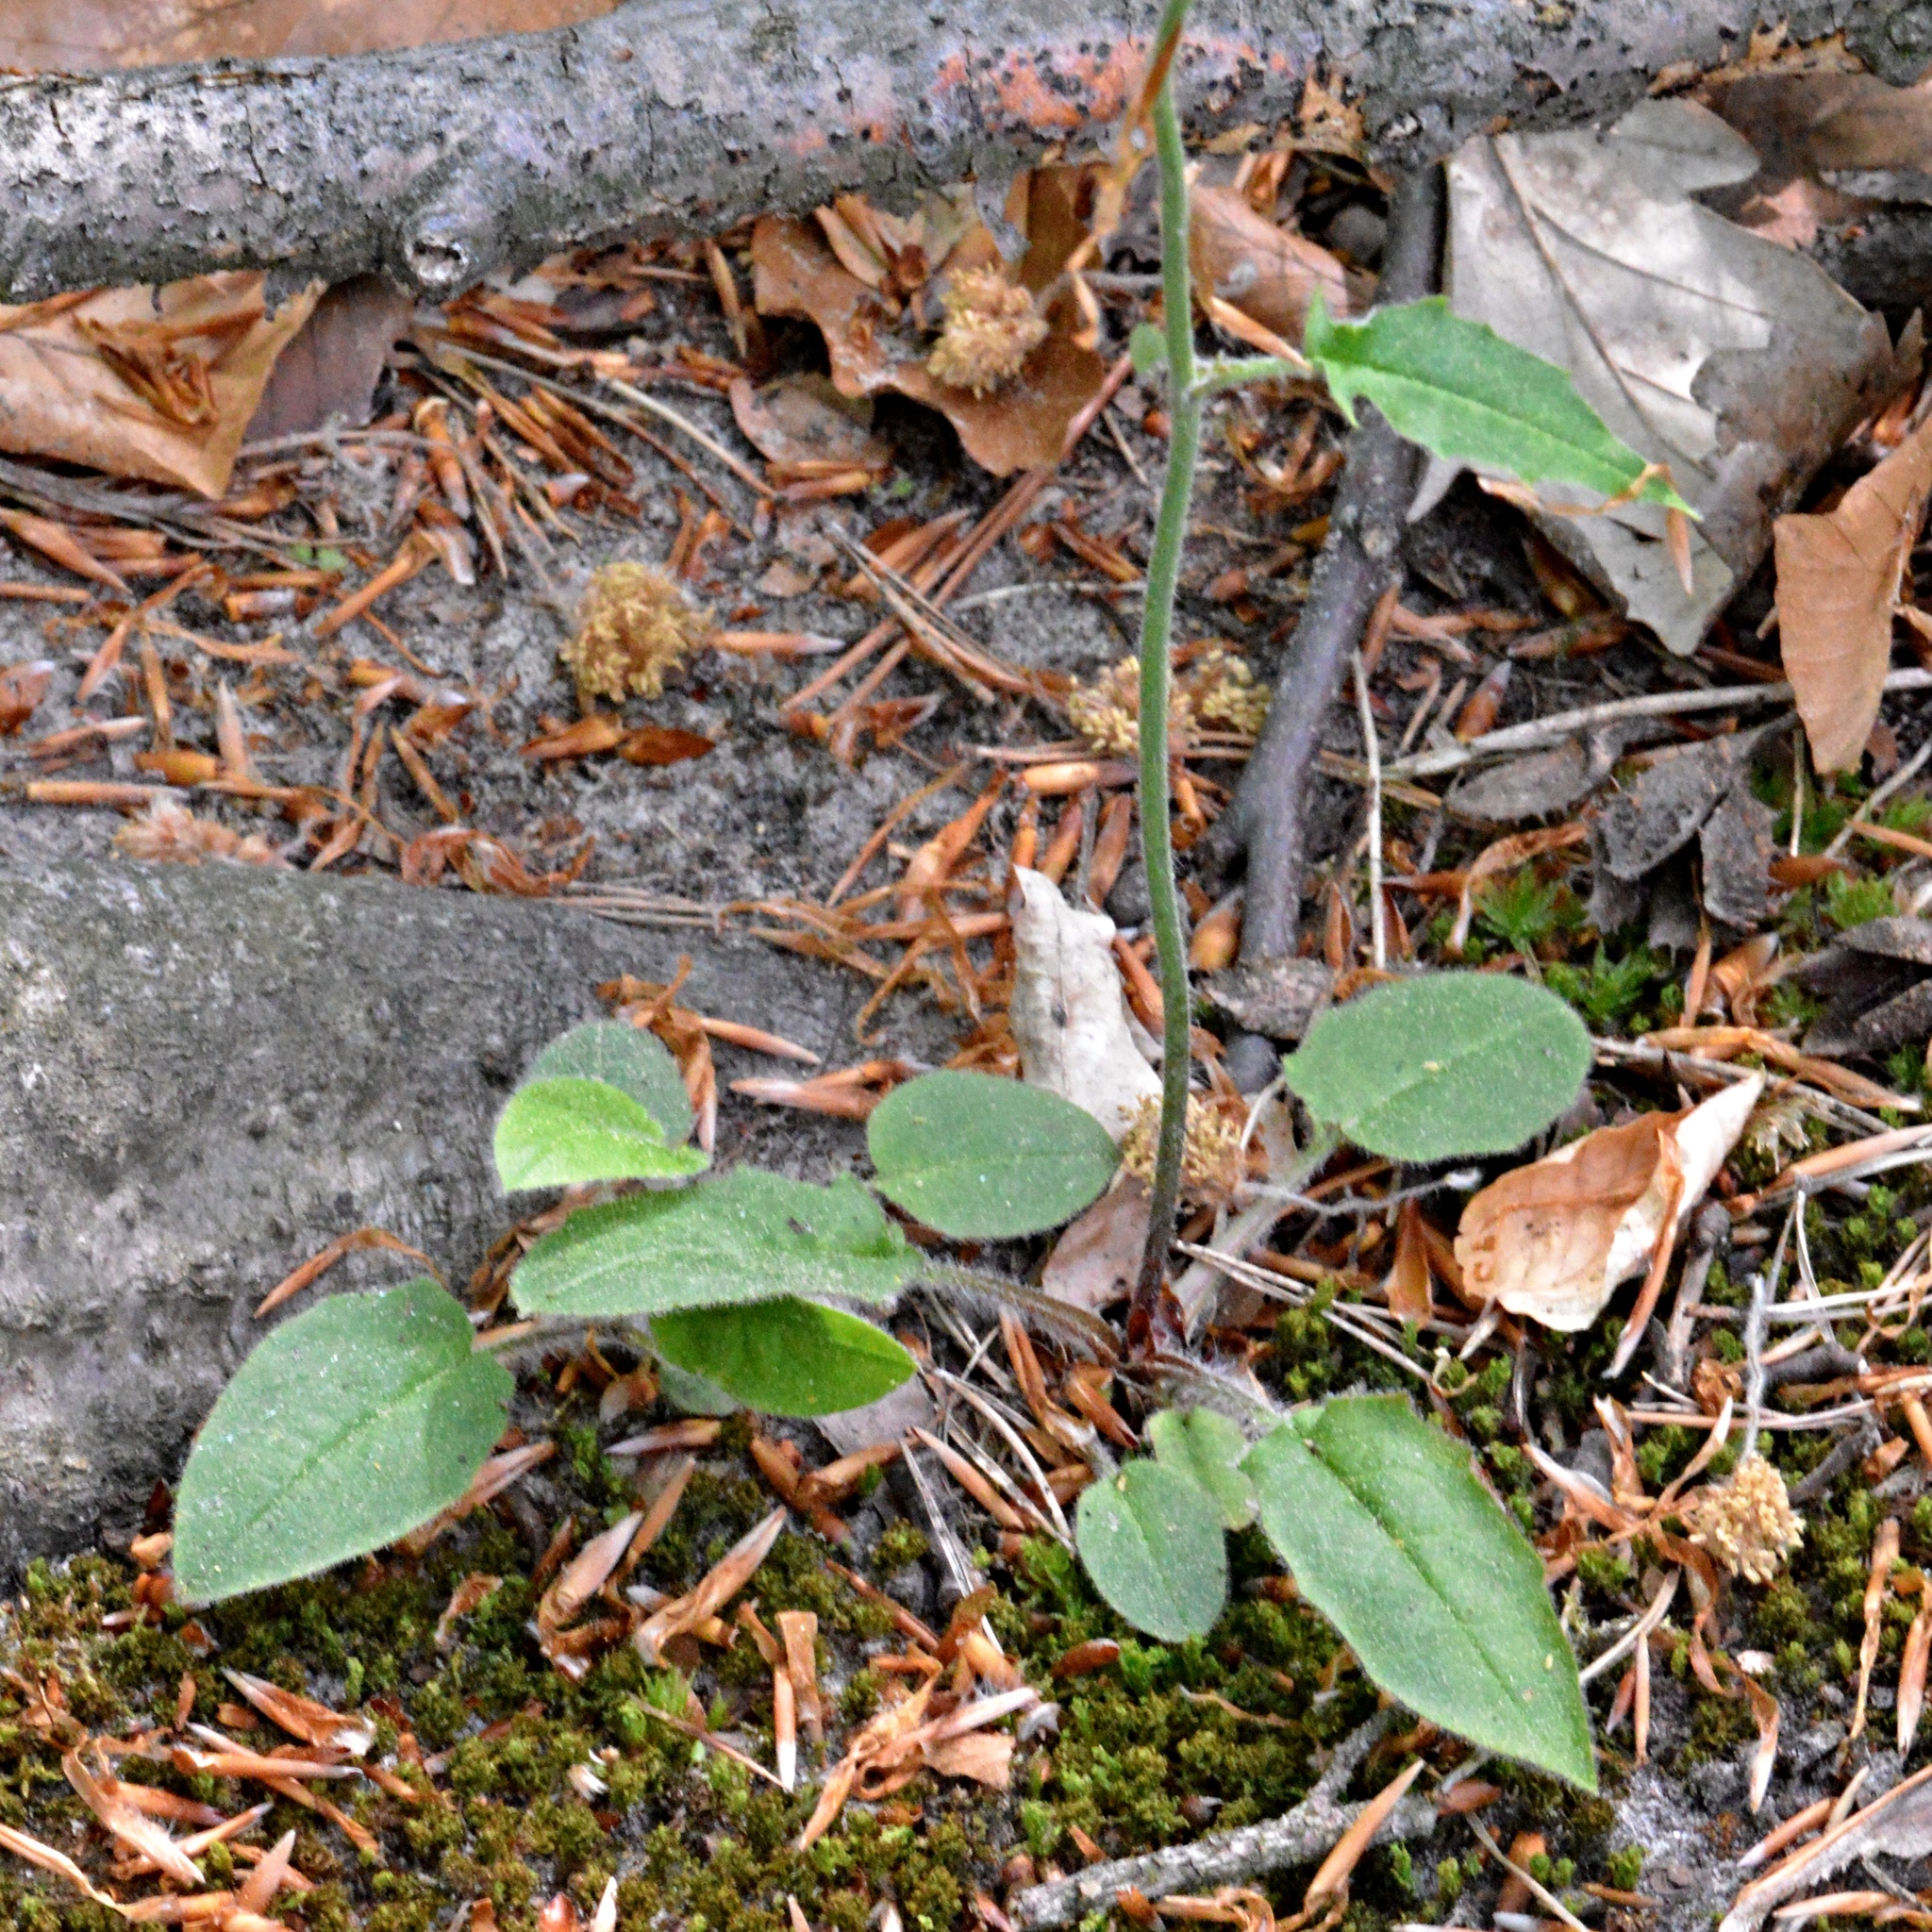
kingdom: Plantae
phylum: Tracheophyta
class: Magnoliopsida
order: Asterales
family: Asteraceae
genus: Hieracium
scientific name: Hieracium murorum
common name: Wall hawkweed
